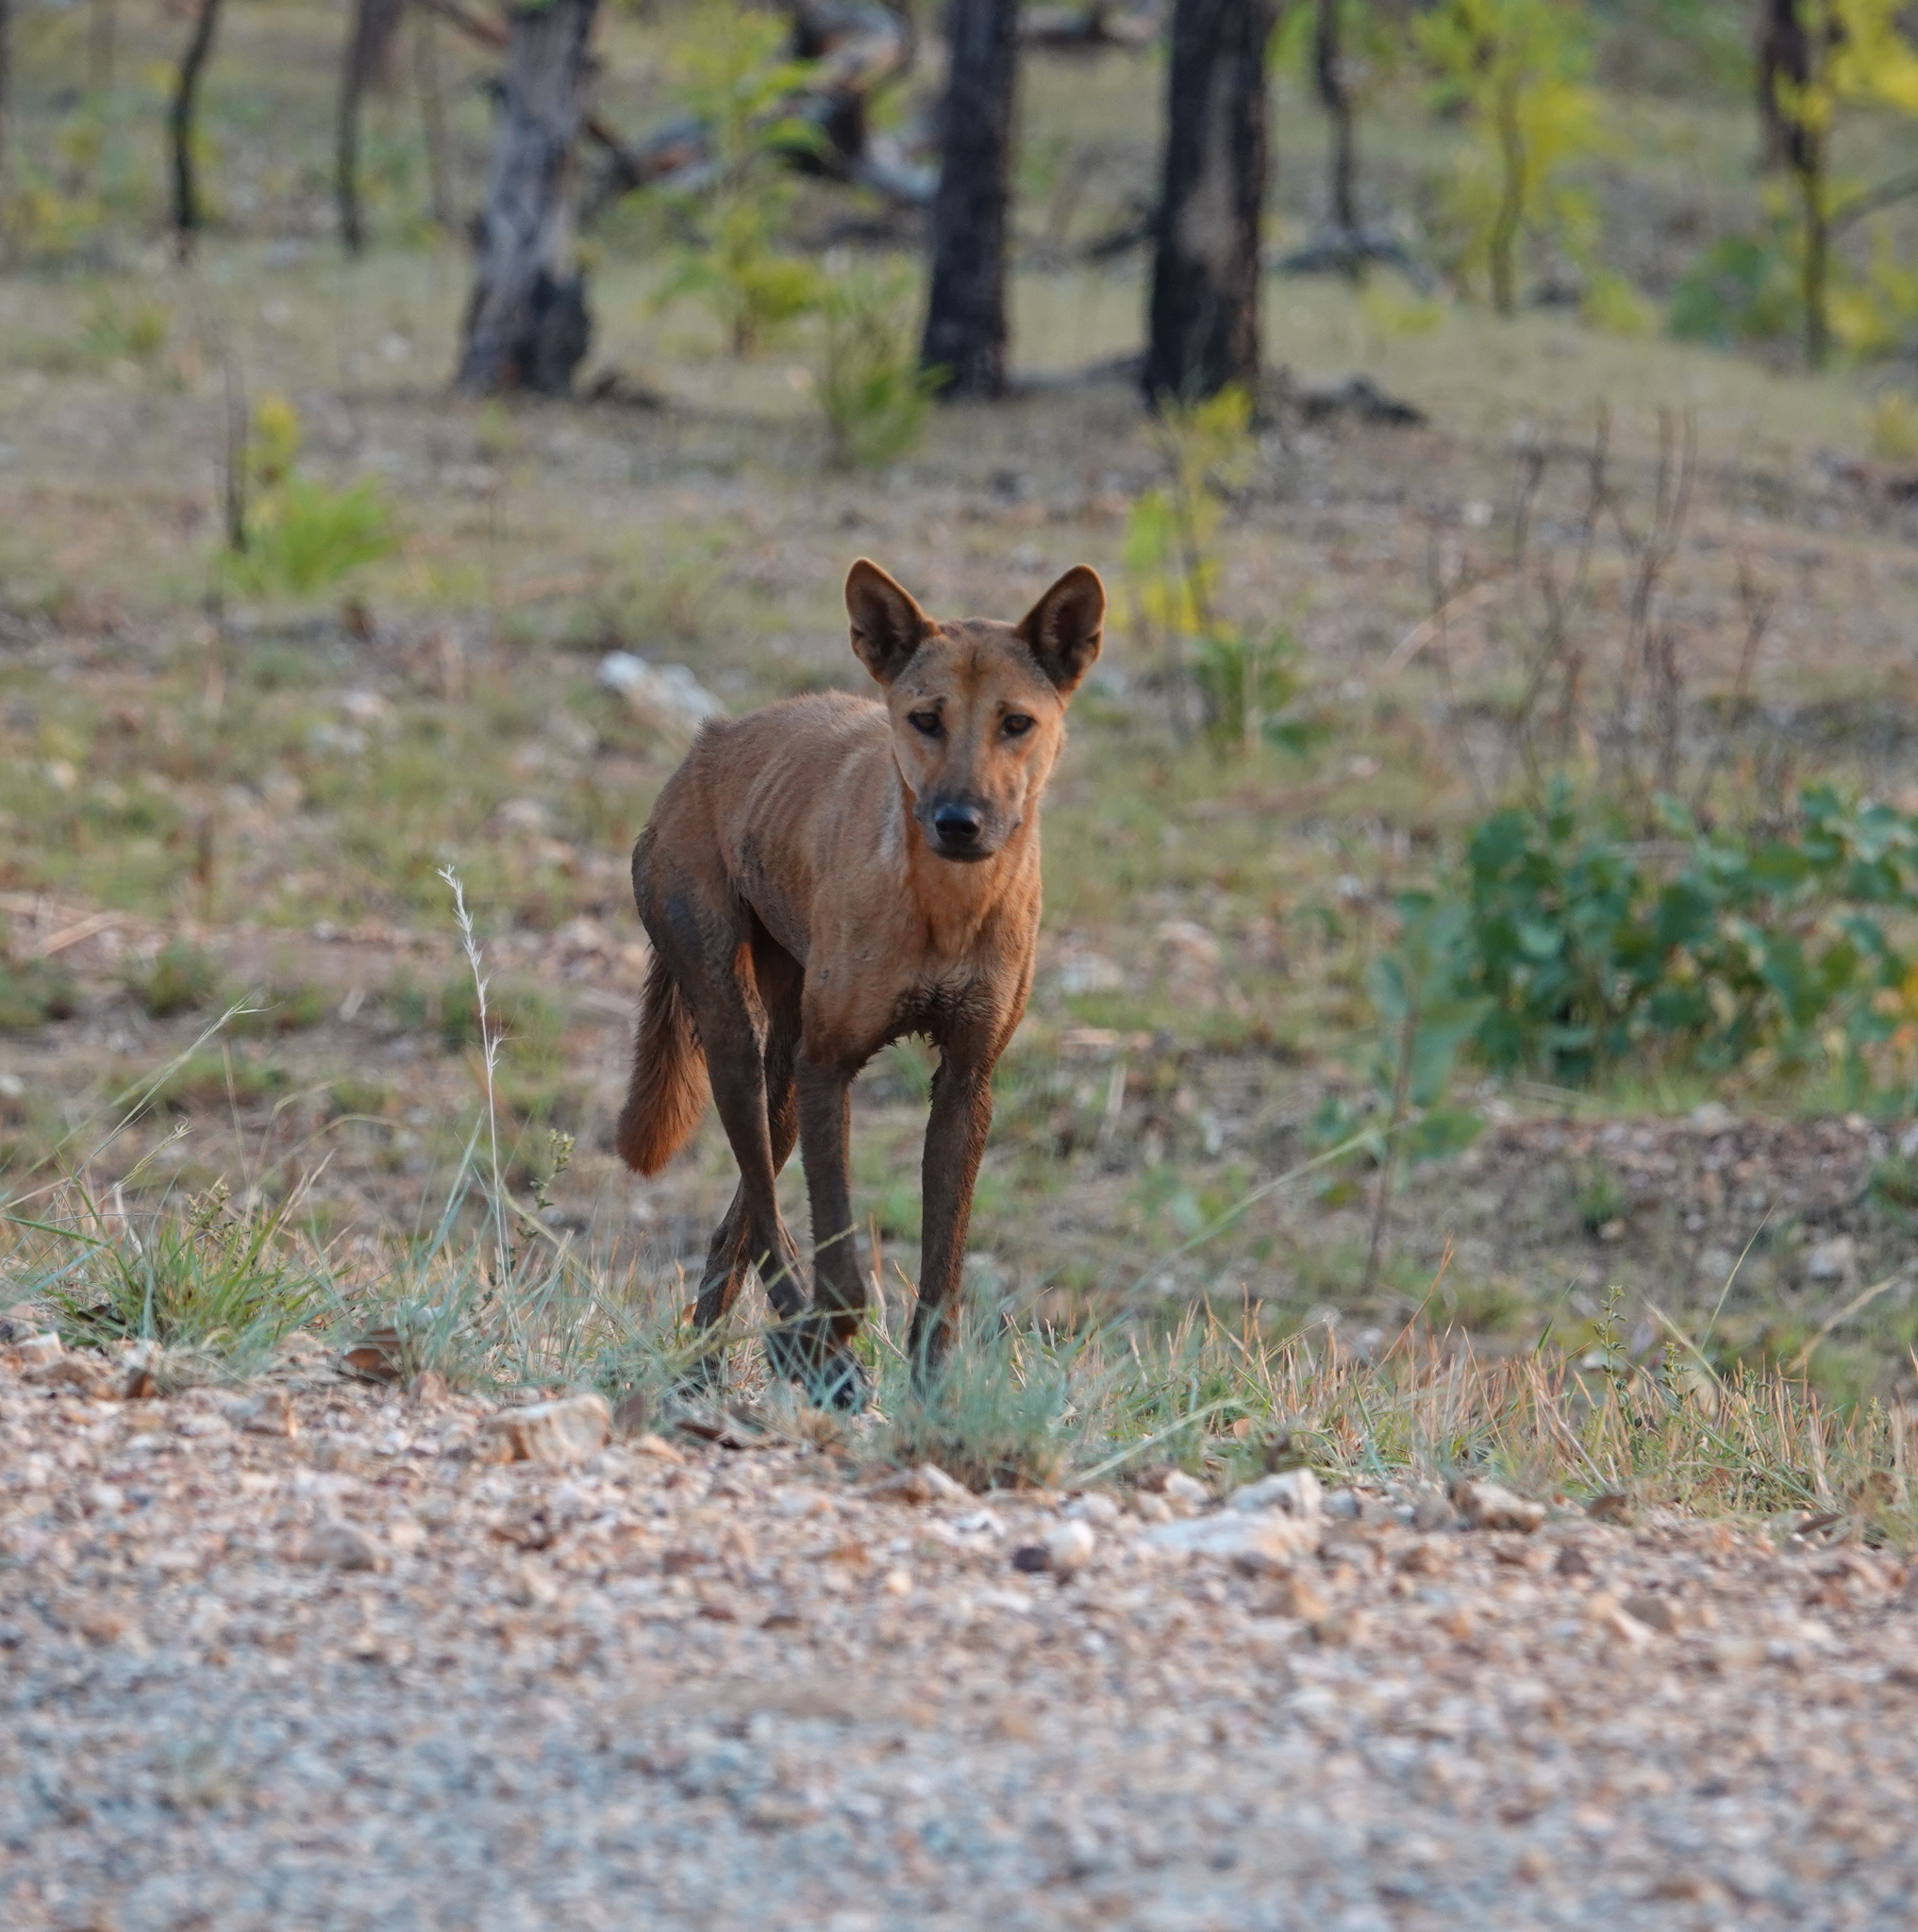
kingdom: Animalia
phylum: Chordata
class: Mammalia
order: Carnivora
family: Canidae
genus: Canis
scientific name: Canis lupus
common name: Gray wolf
